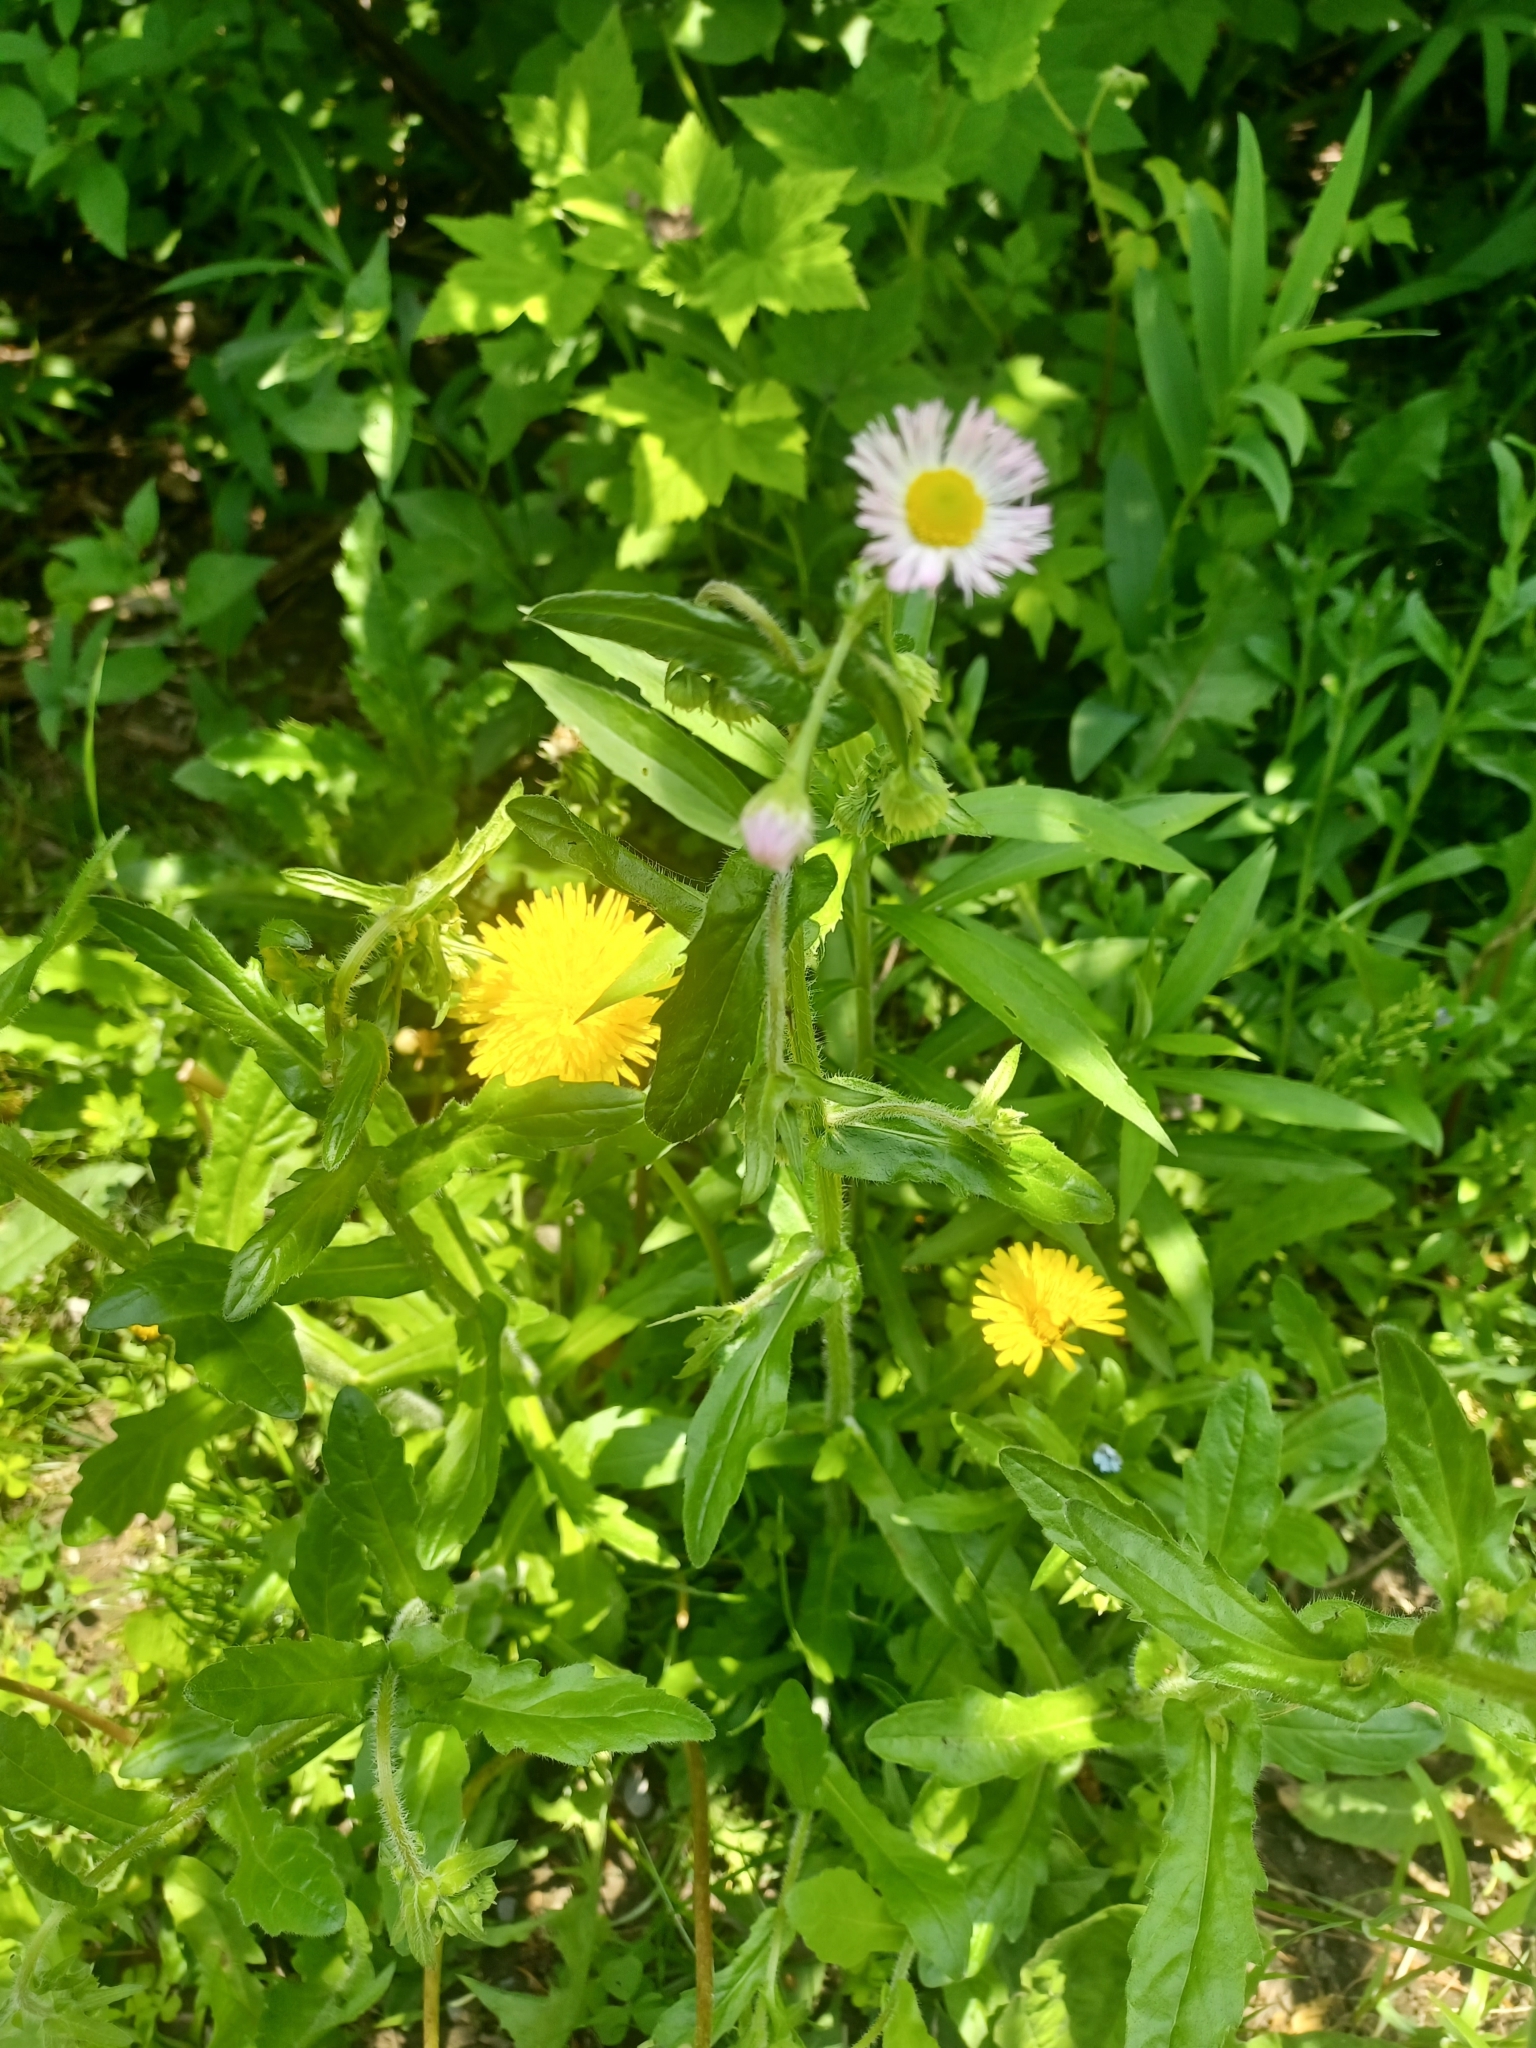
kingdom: Plantae
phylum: Tracheophyta
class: Magnoliopsida
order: Asterales
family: Asteraceae
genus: Erigeron
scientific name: Erigeron philadelphicus
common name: Robin's-plantain
